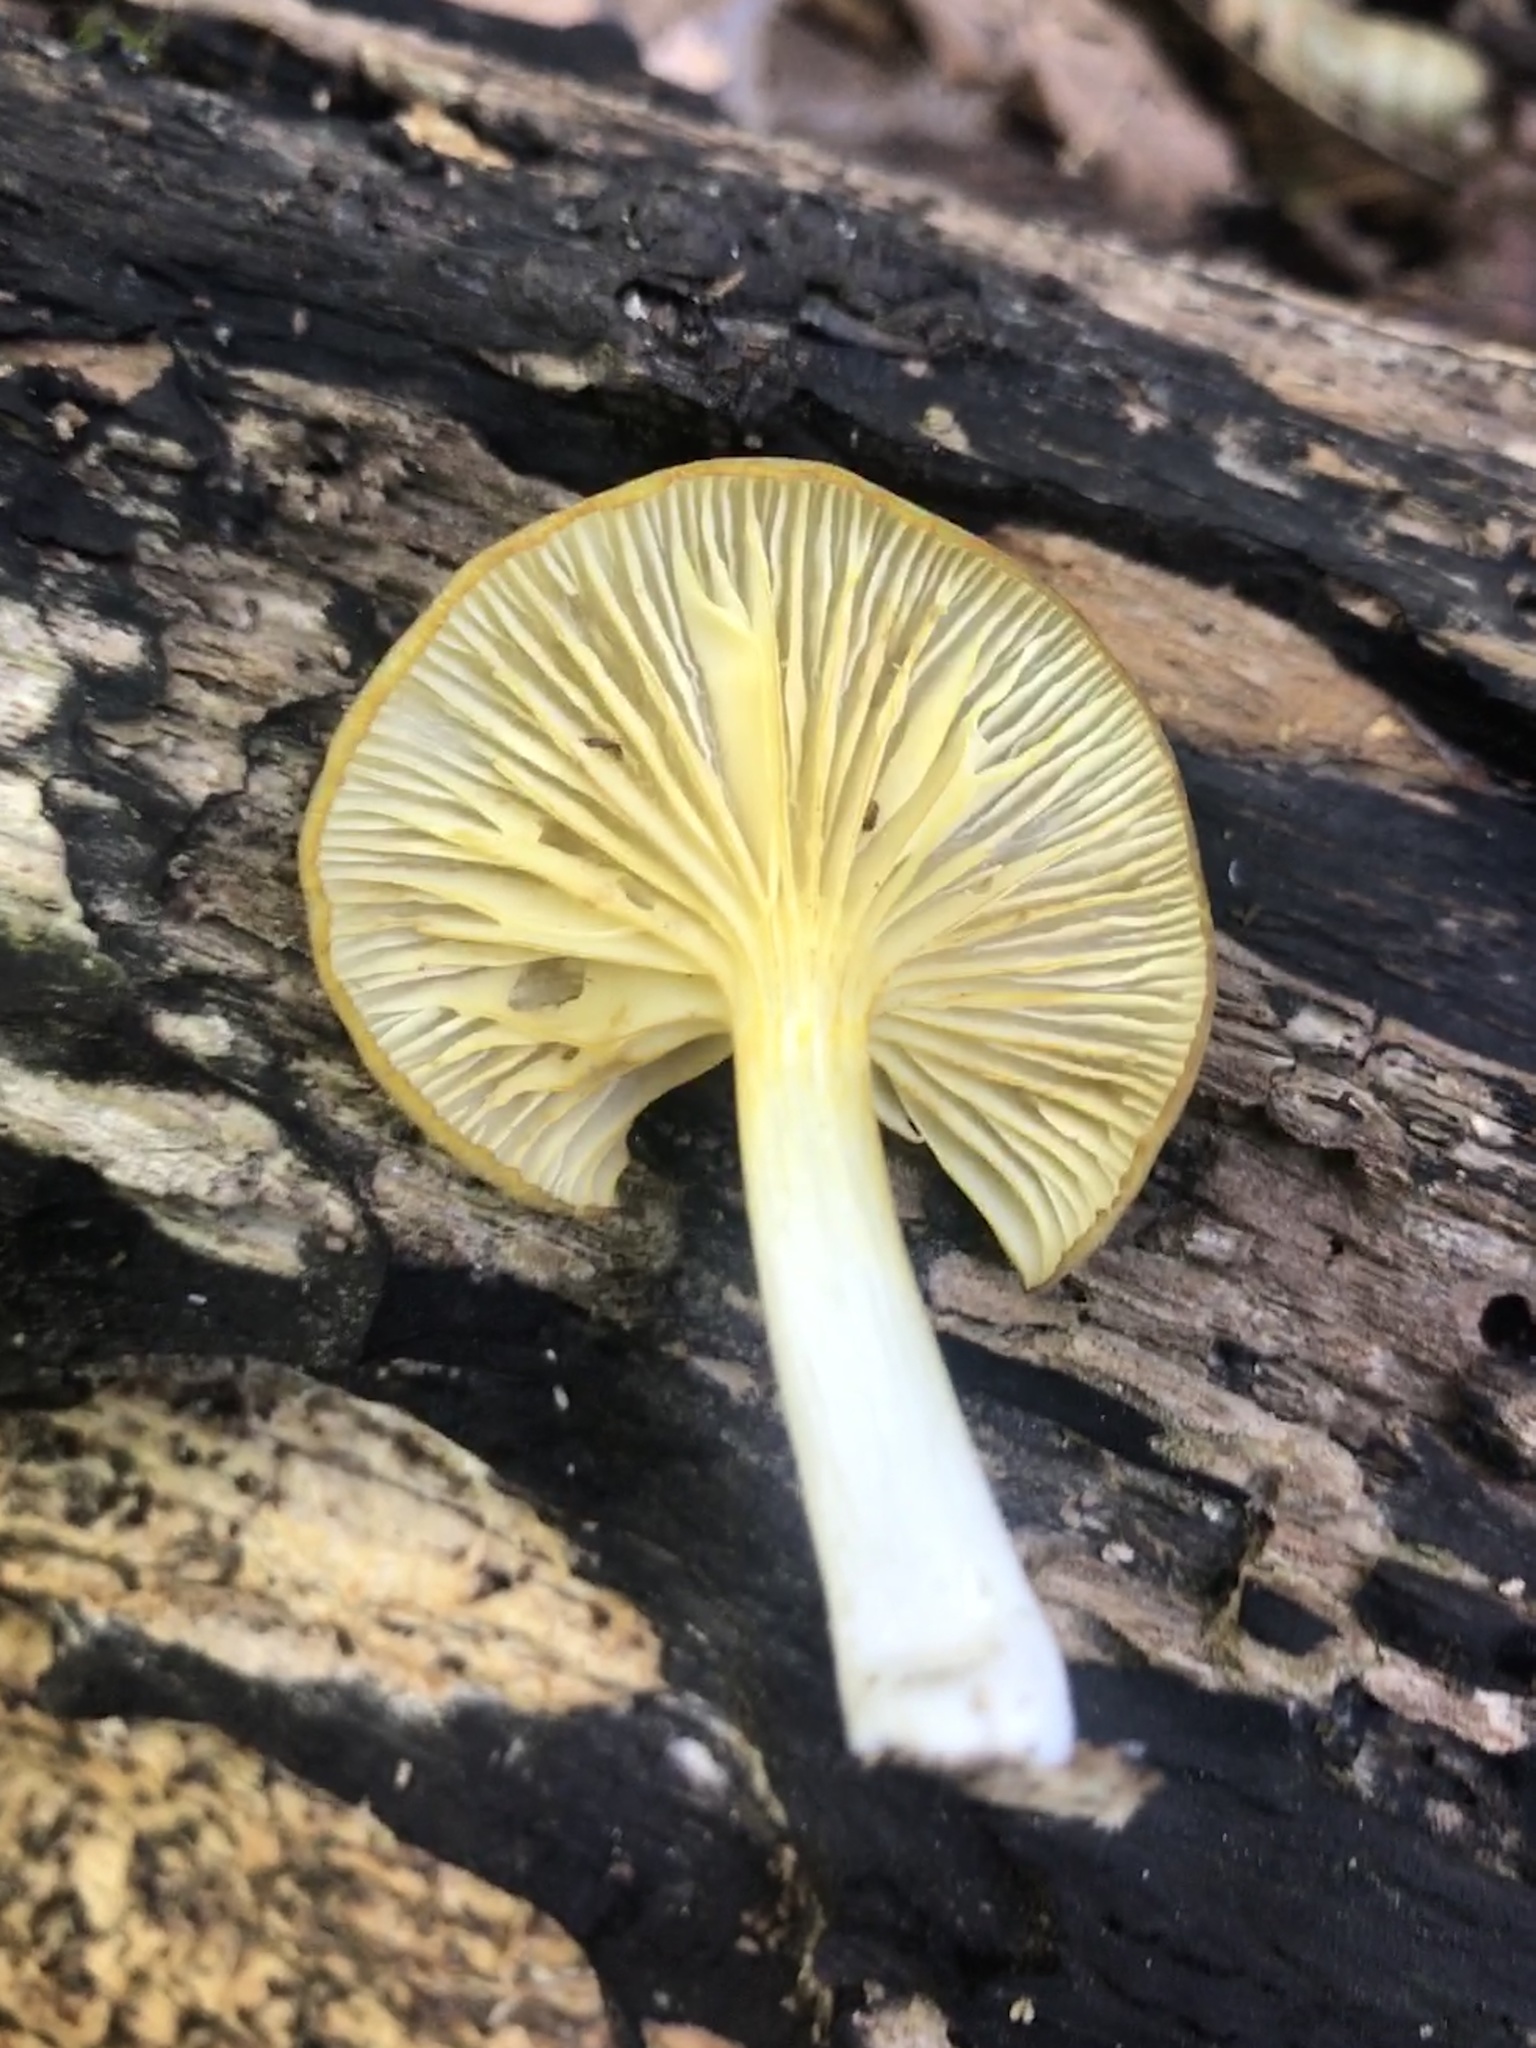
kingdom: Fungi
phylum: Basidiomycota
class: Agaricomycetes
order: Agaricales
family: Marasmiaceae
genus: Gerronema
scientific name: Gerronema strombodes
